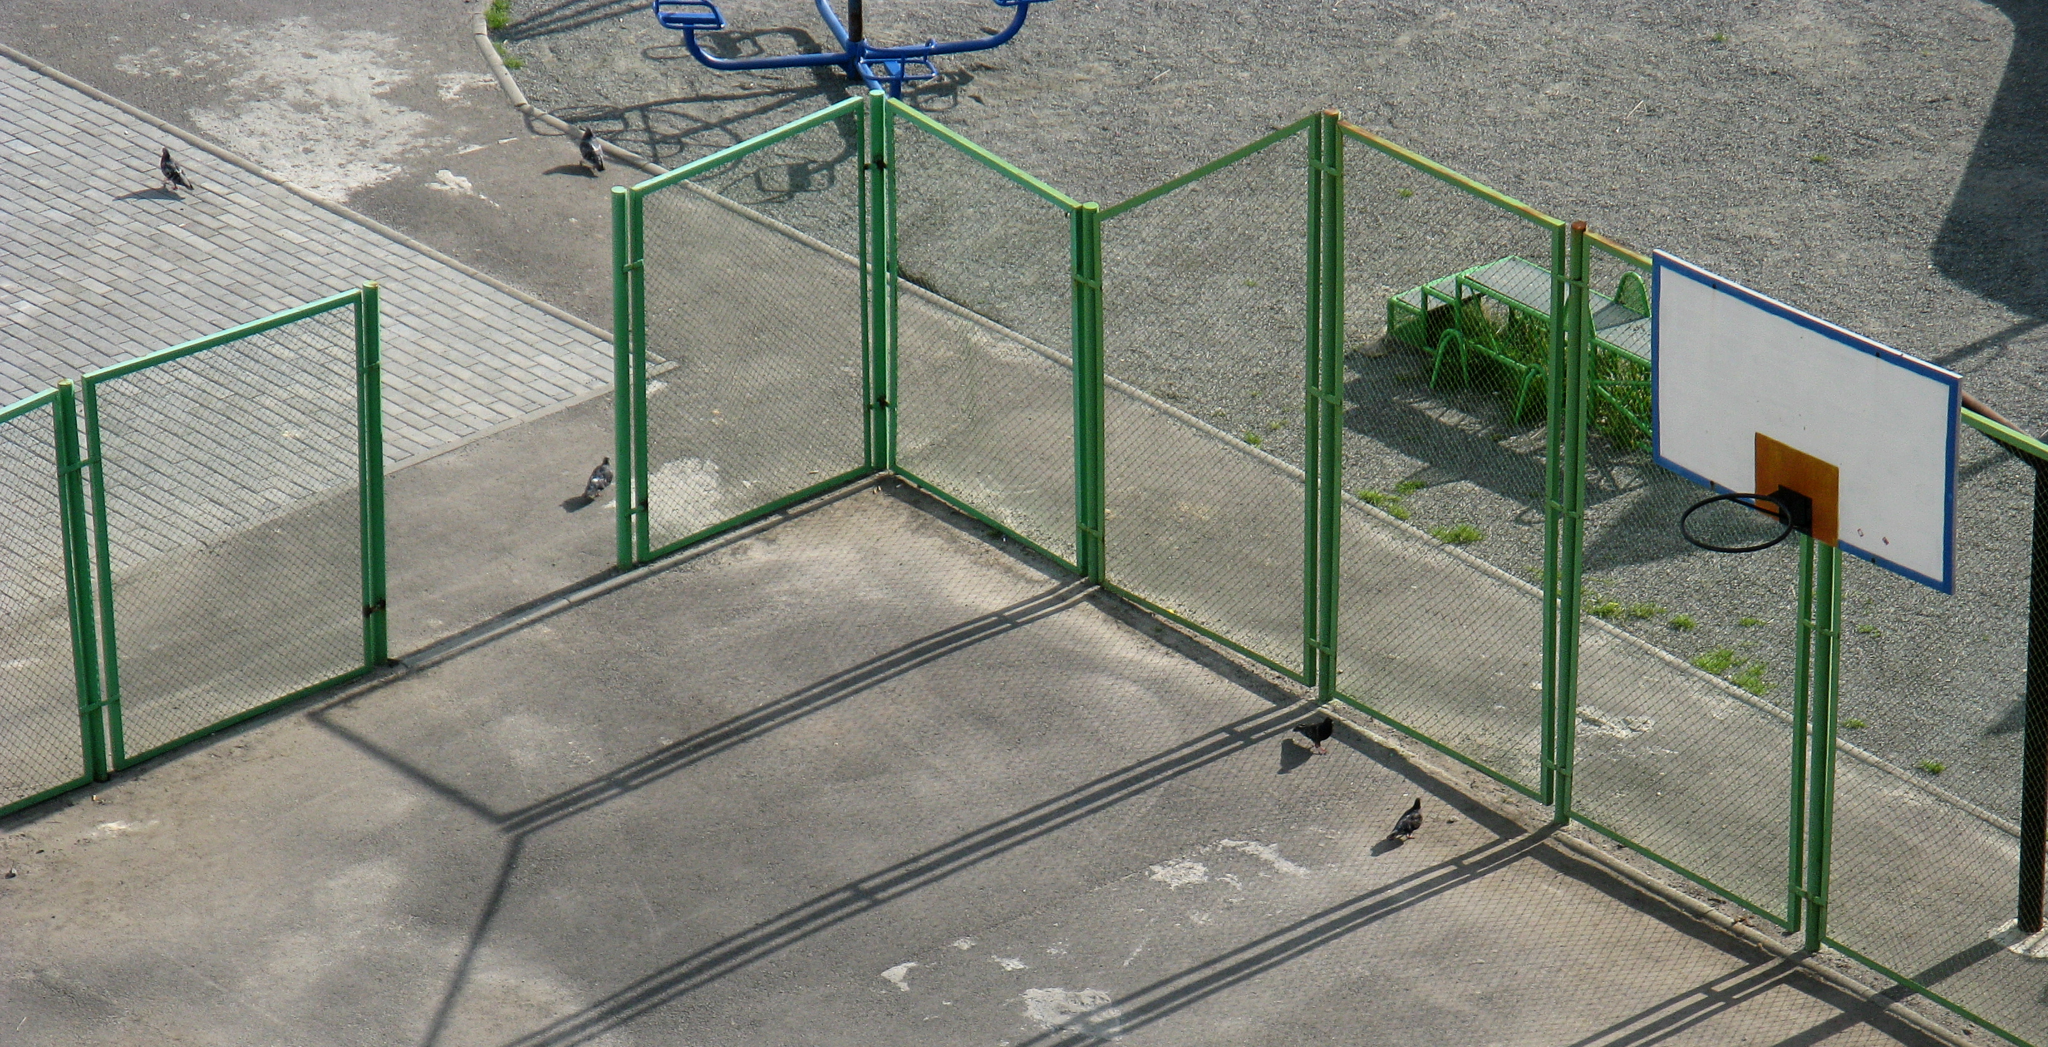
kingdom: Animalia
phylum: Chordata
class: Aves
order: Columbiformes
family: Columbidae
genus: Columba
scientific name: Columba livia
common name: Rock pigeon
